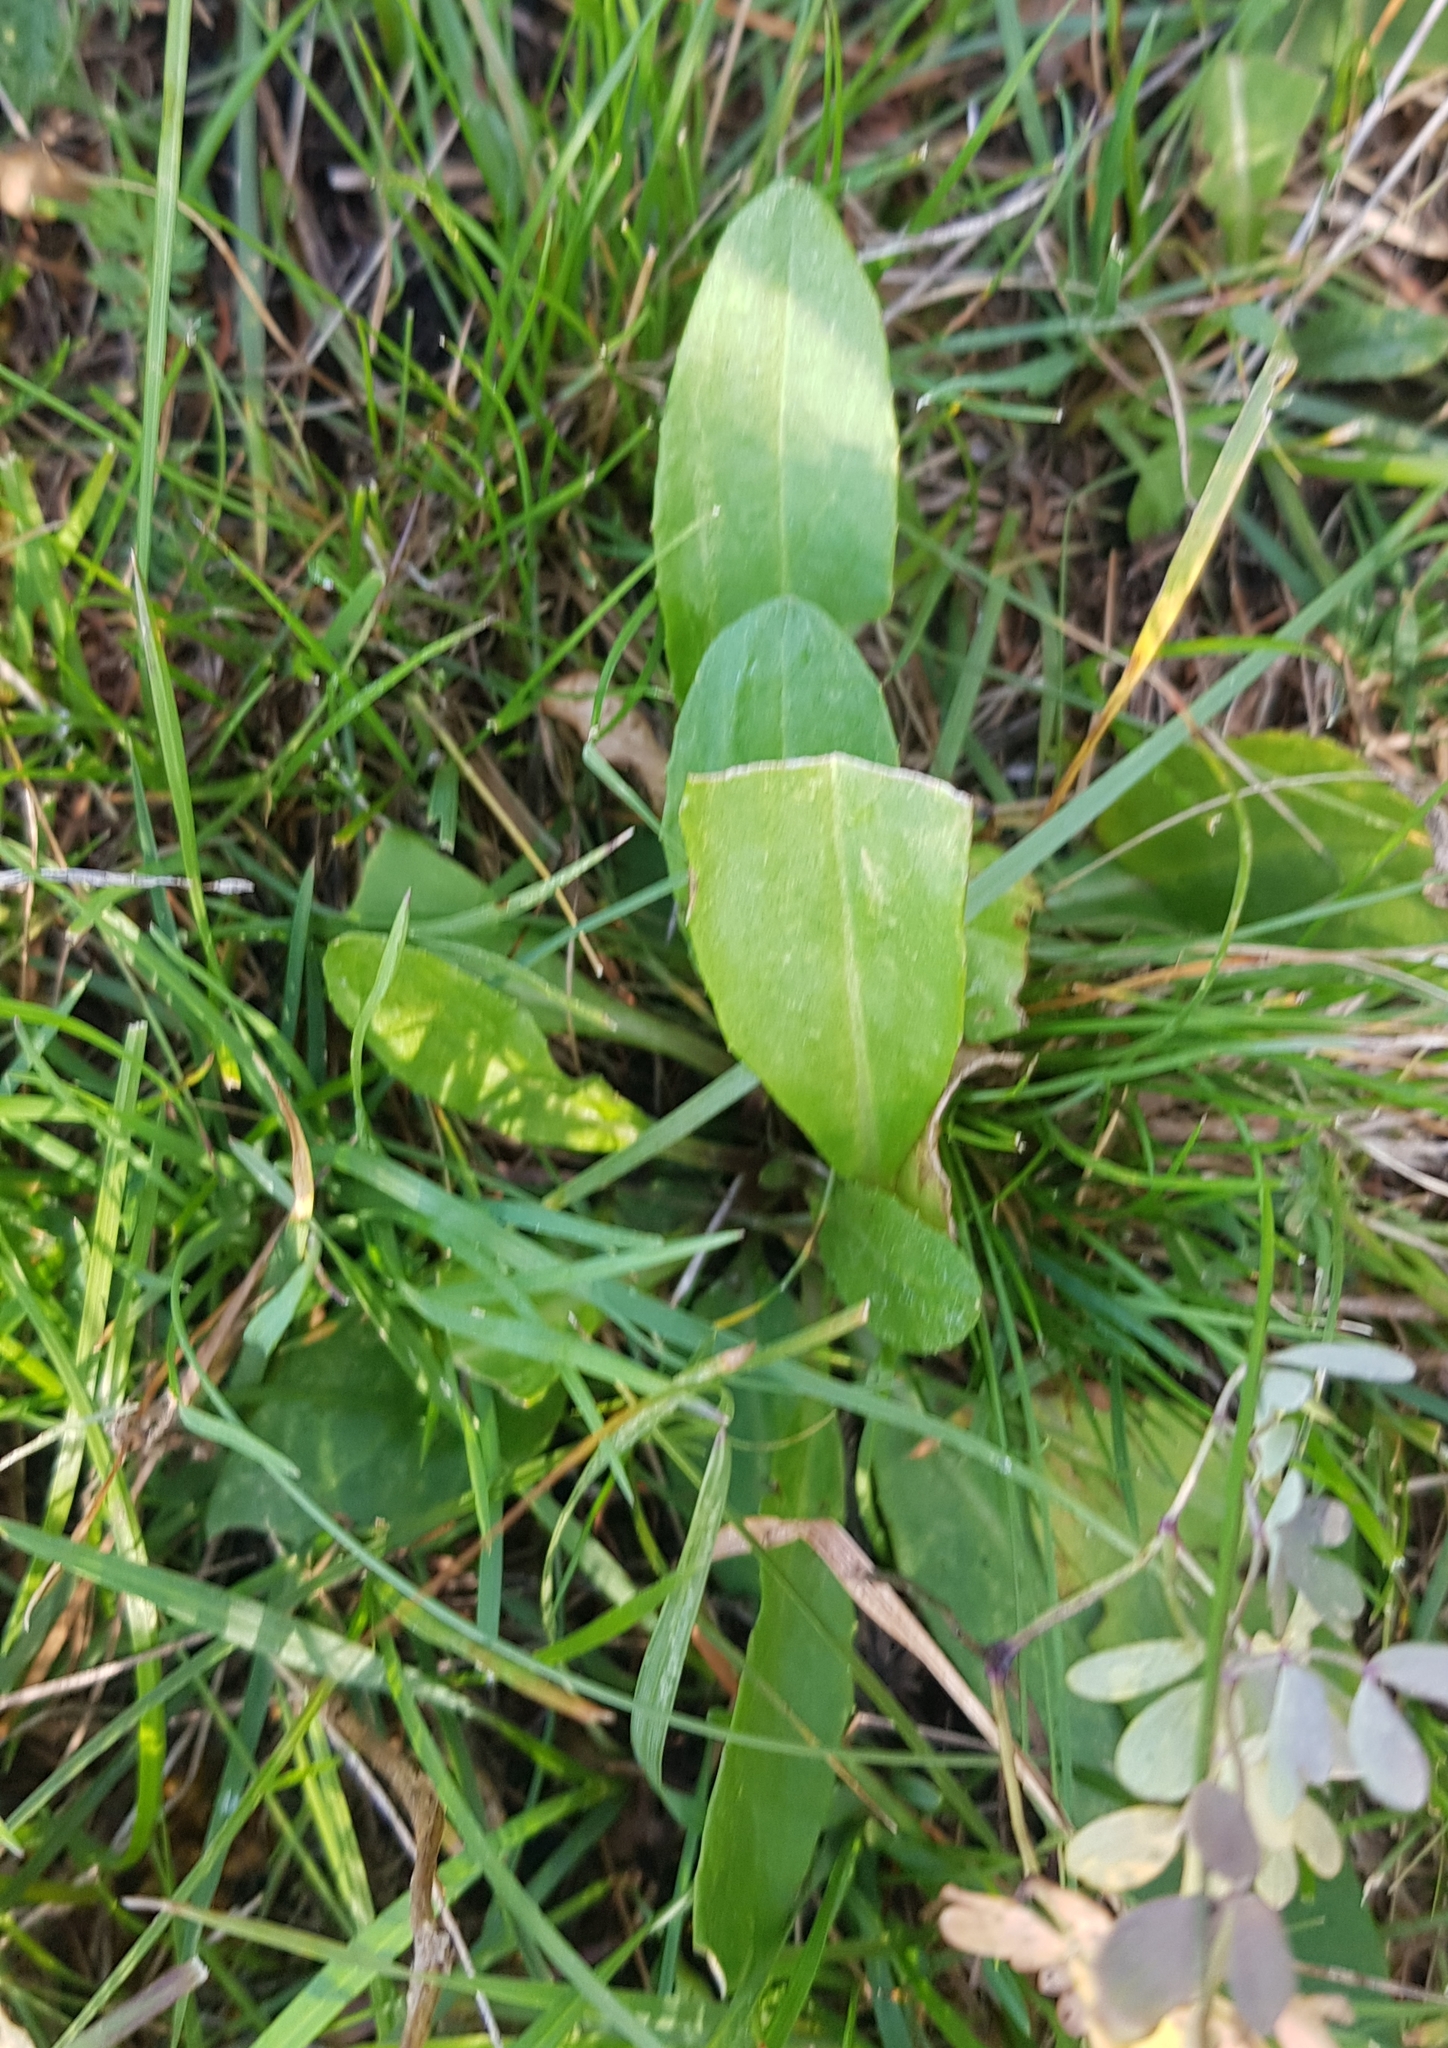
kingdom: Plantae
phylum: Tracheophyta
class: Magnoliopsida
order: Asterales
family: Asteraceae
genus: Senecio
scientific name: Senecio integerrimus
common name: Gaugeplant
